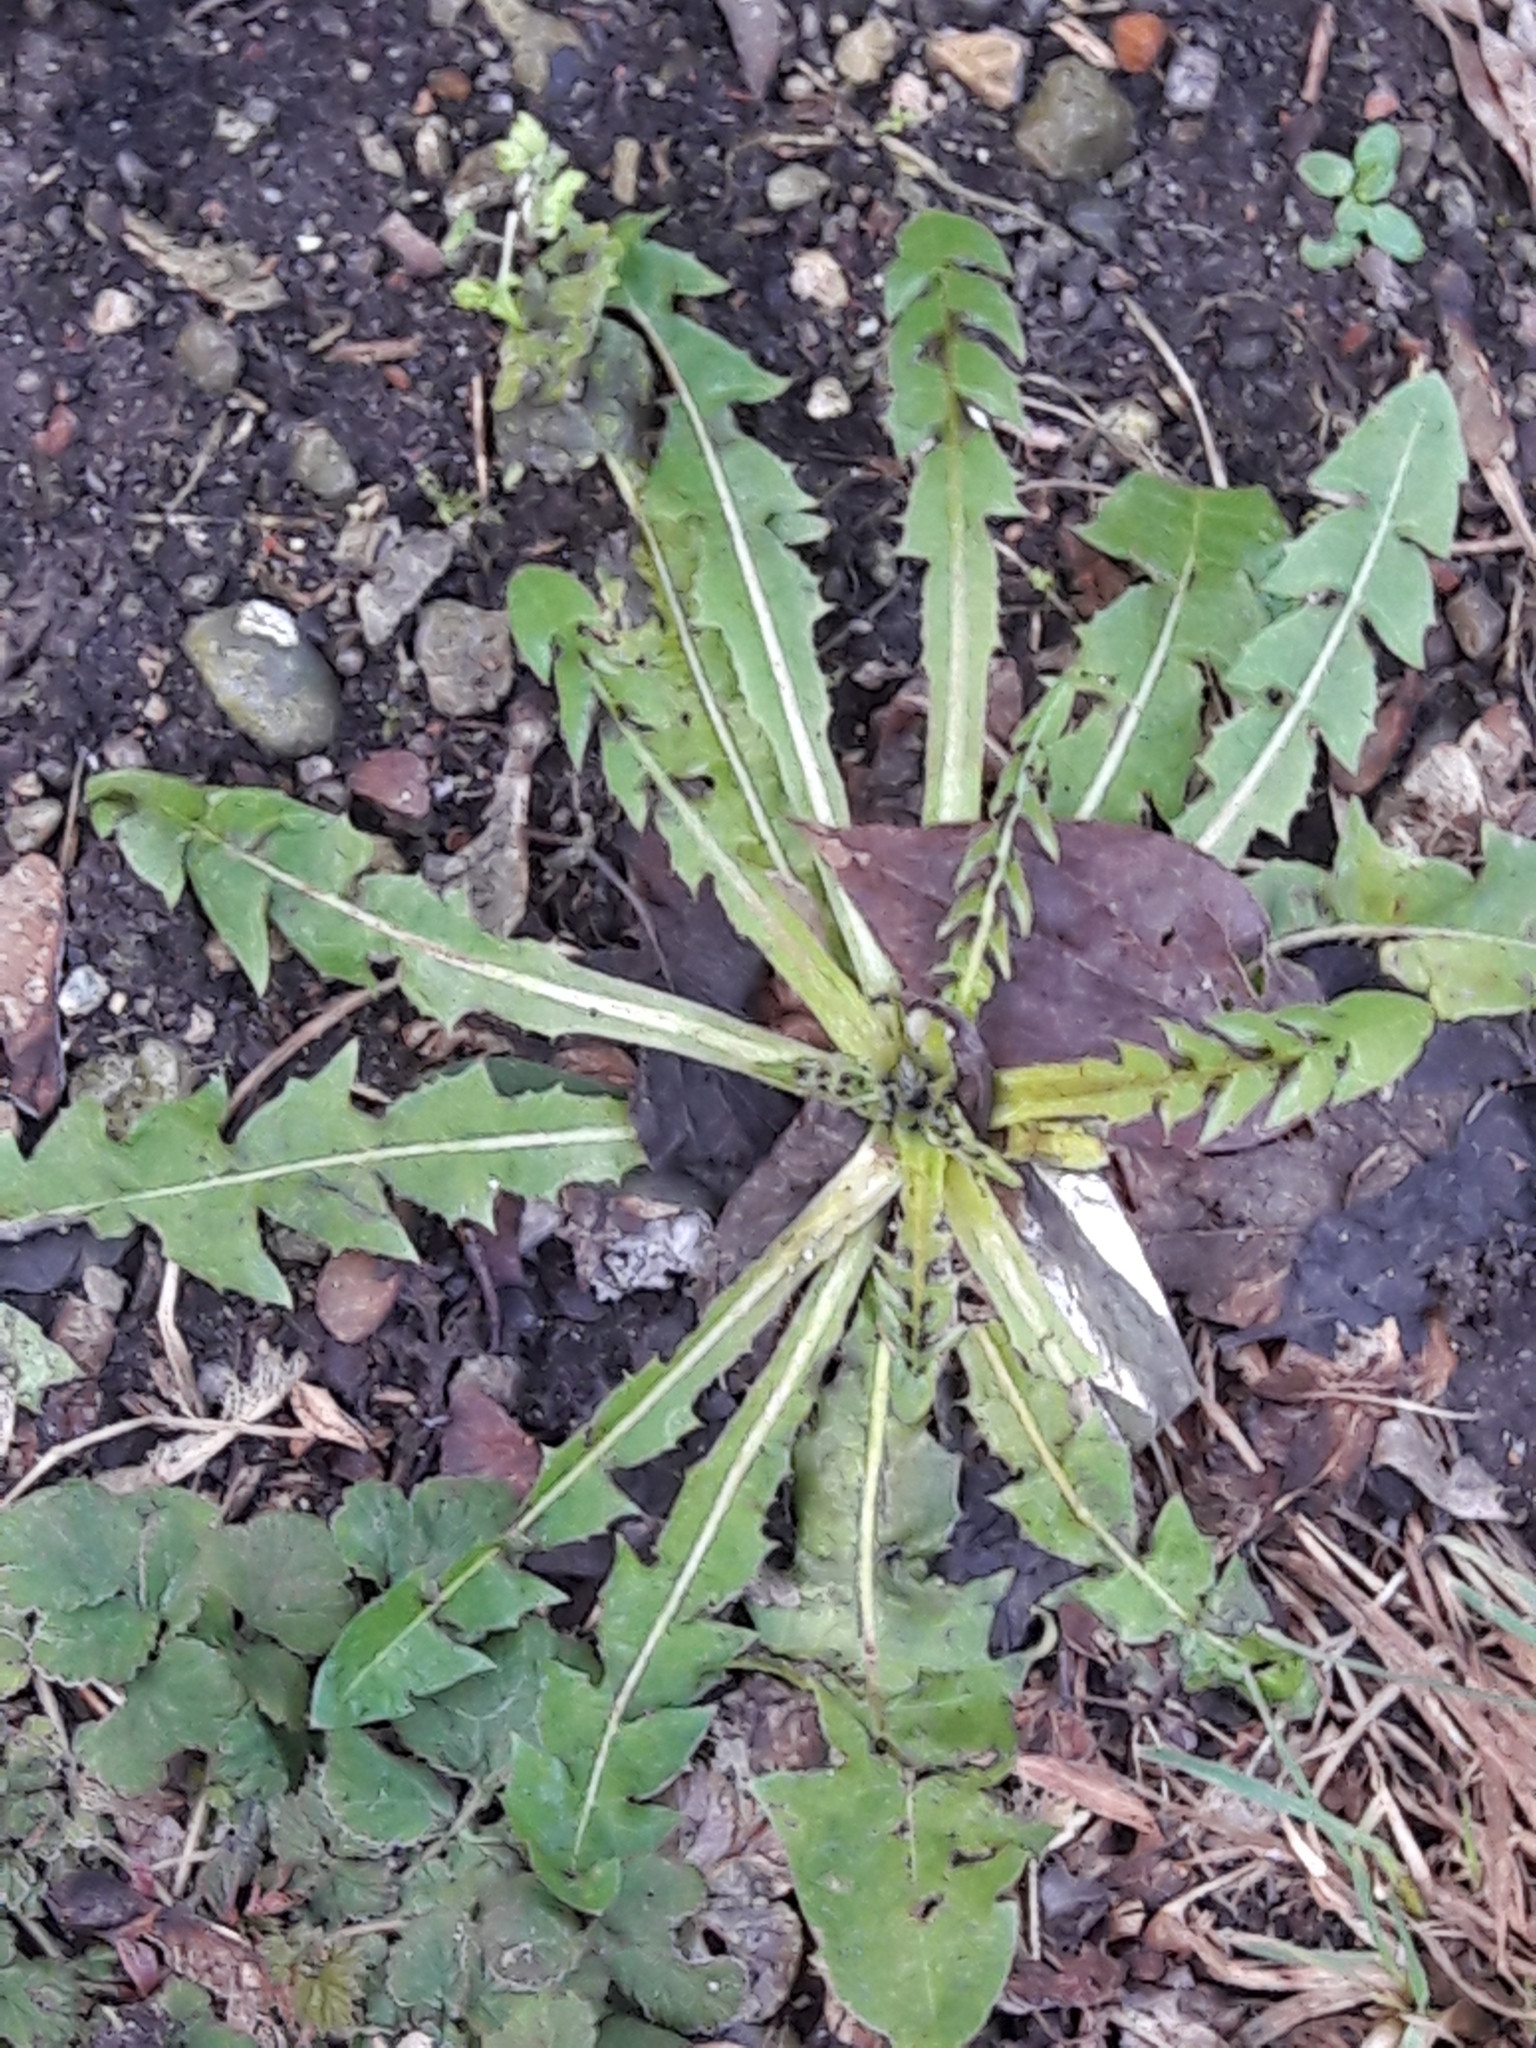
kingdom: Plantae
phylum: Tracheophyta
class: Magnoliopsida
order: Asterales
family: Asteraceae
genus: Taraxacum
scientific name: Taraxacum officinale
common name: Common dandelion
